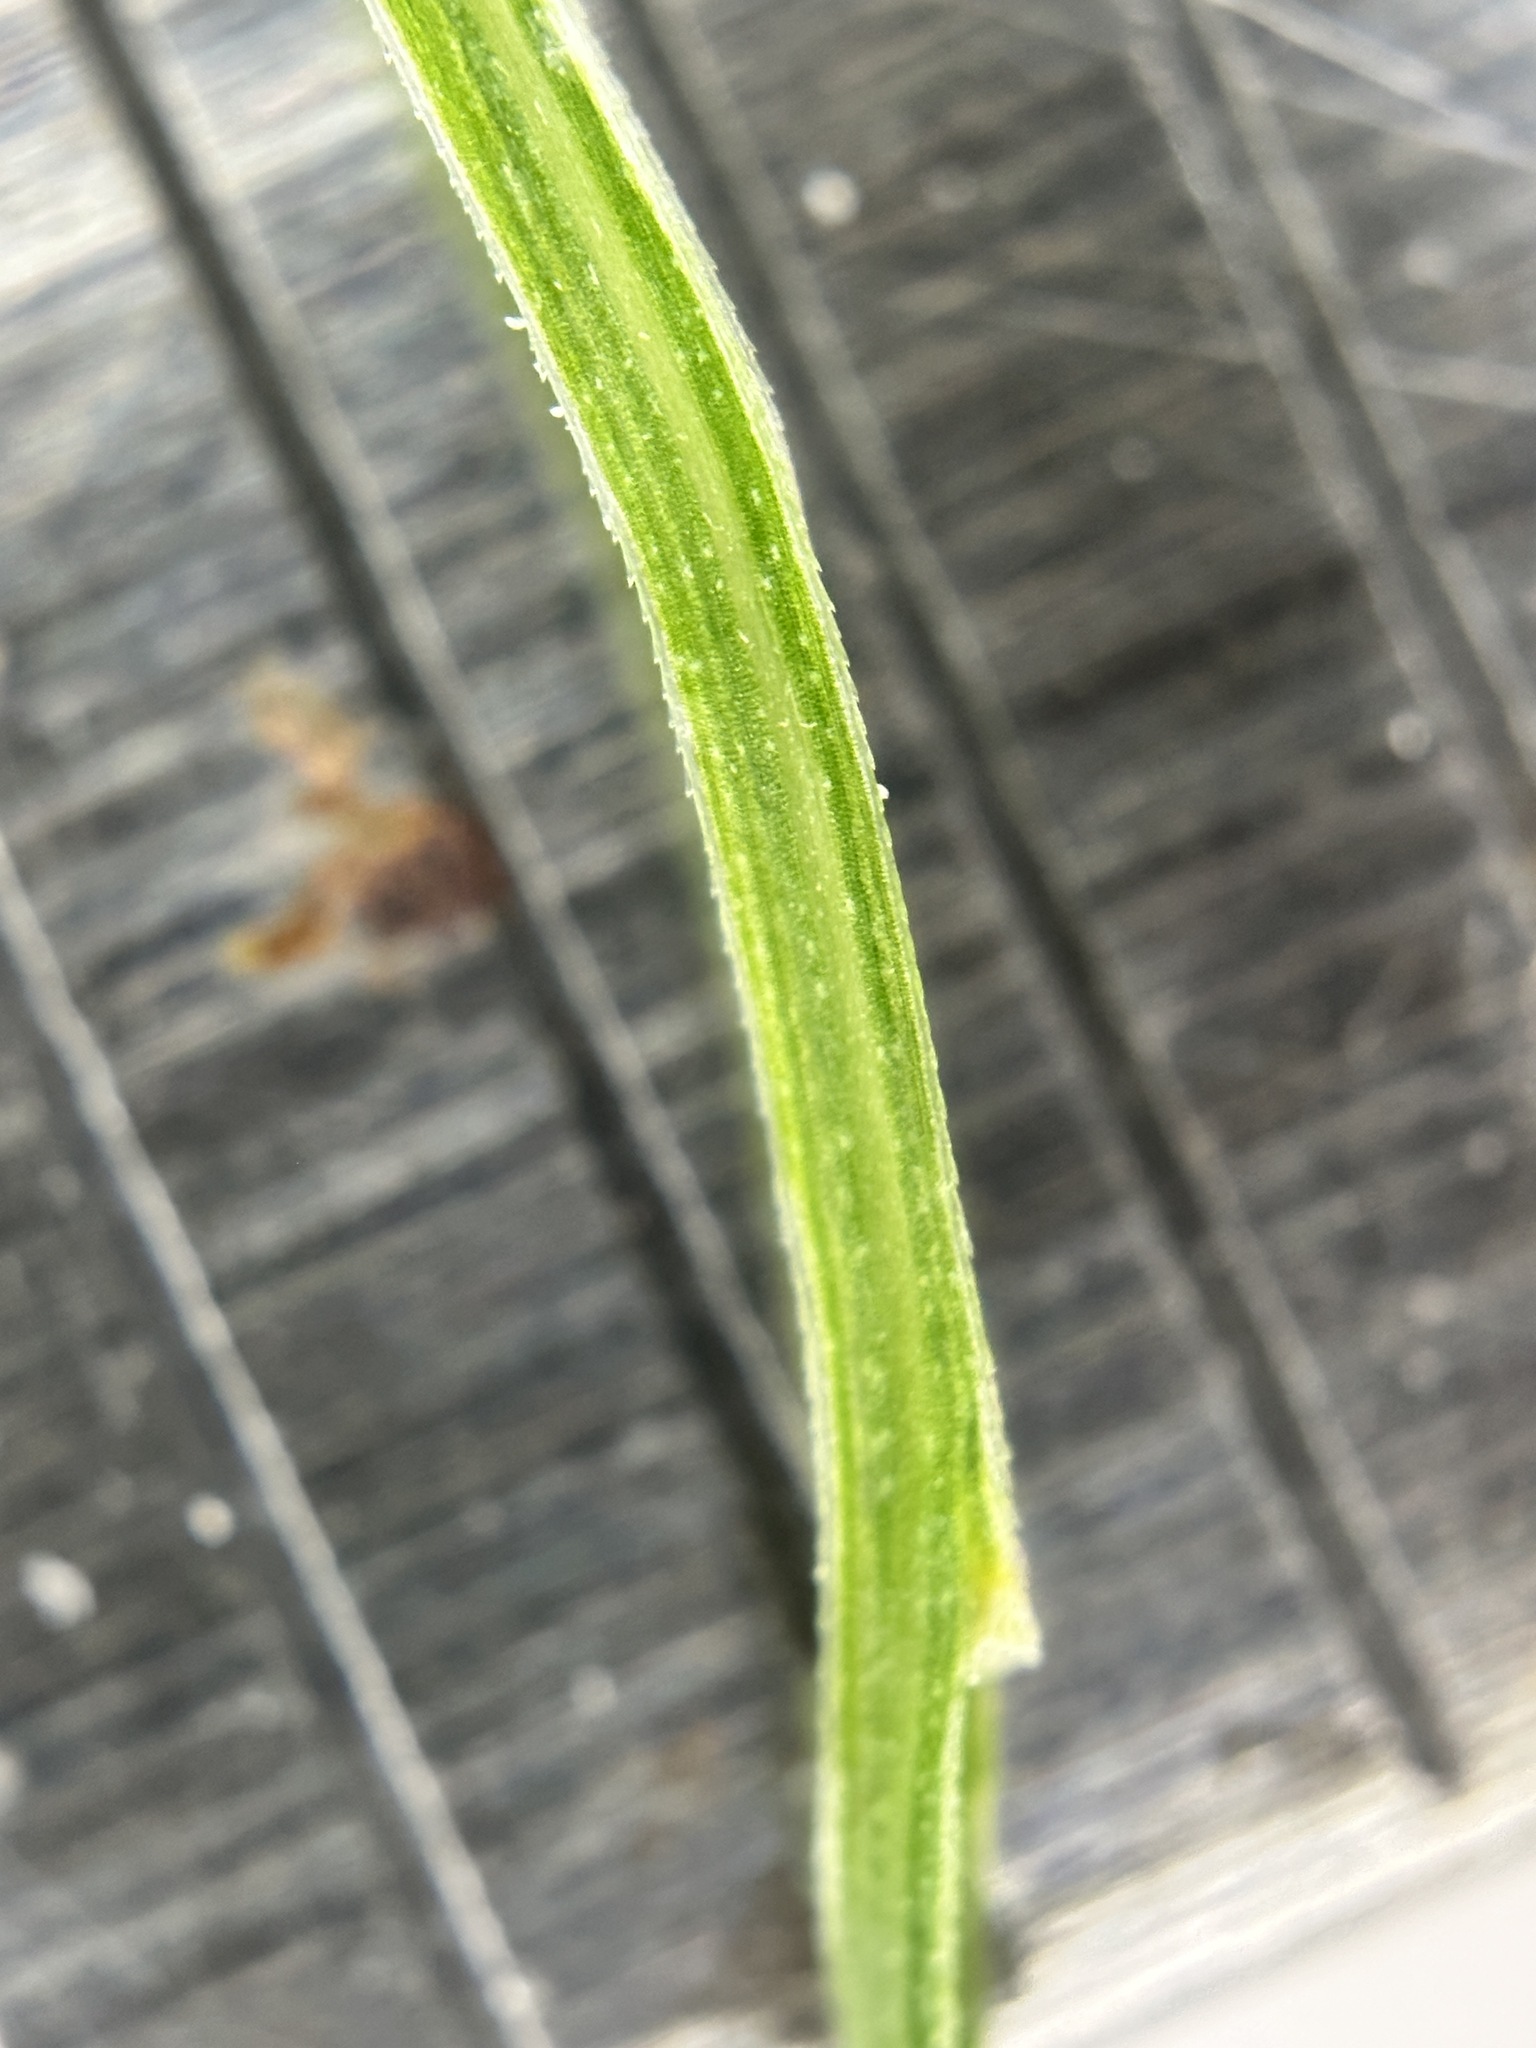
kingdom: Plantae
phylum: Tracheophyta
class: Liliopsida
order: Poales
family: Poaceae
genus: Digitaria
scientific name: Digitaria radicosa
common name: Trailing crabgrass
